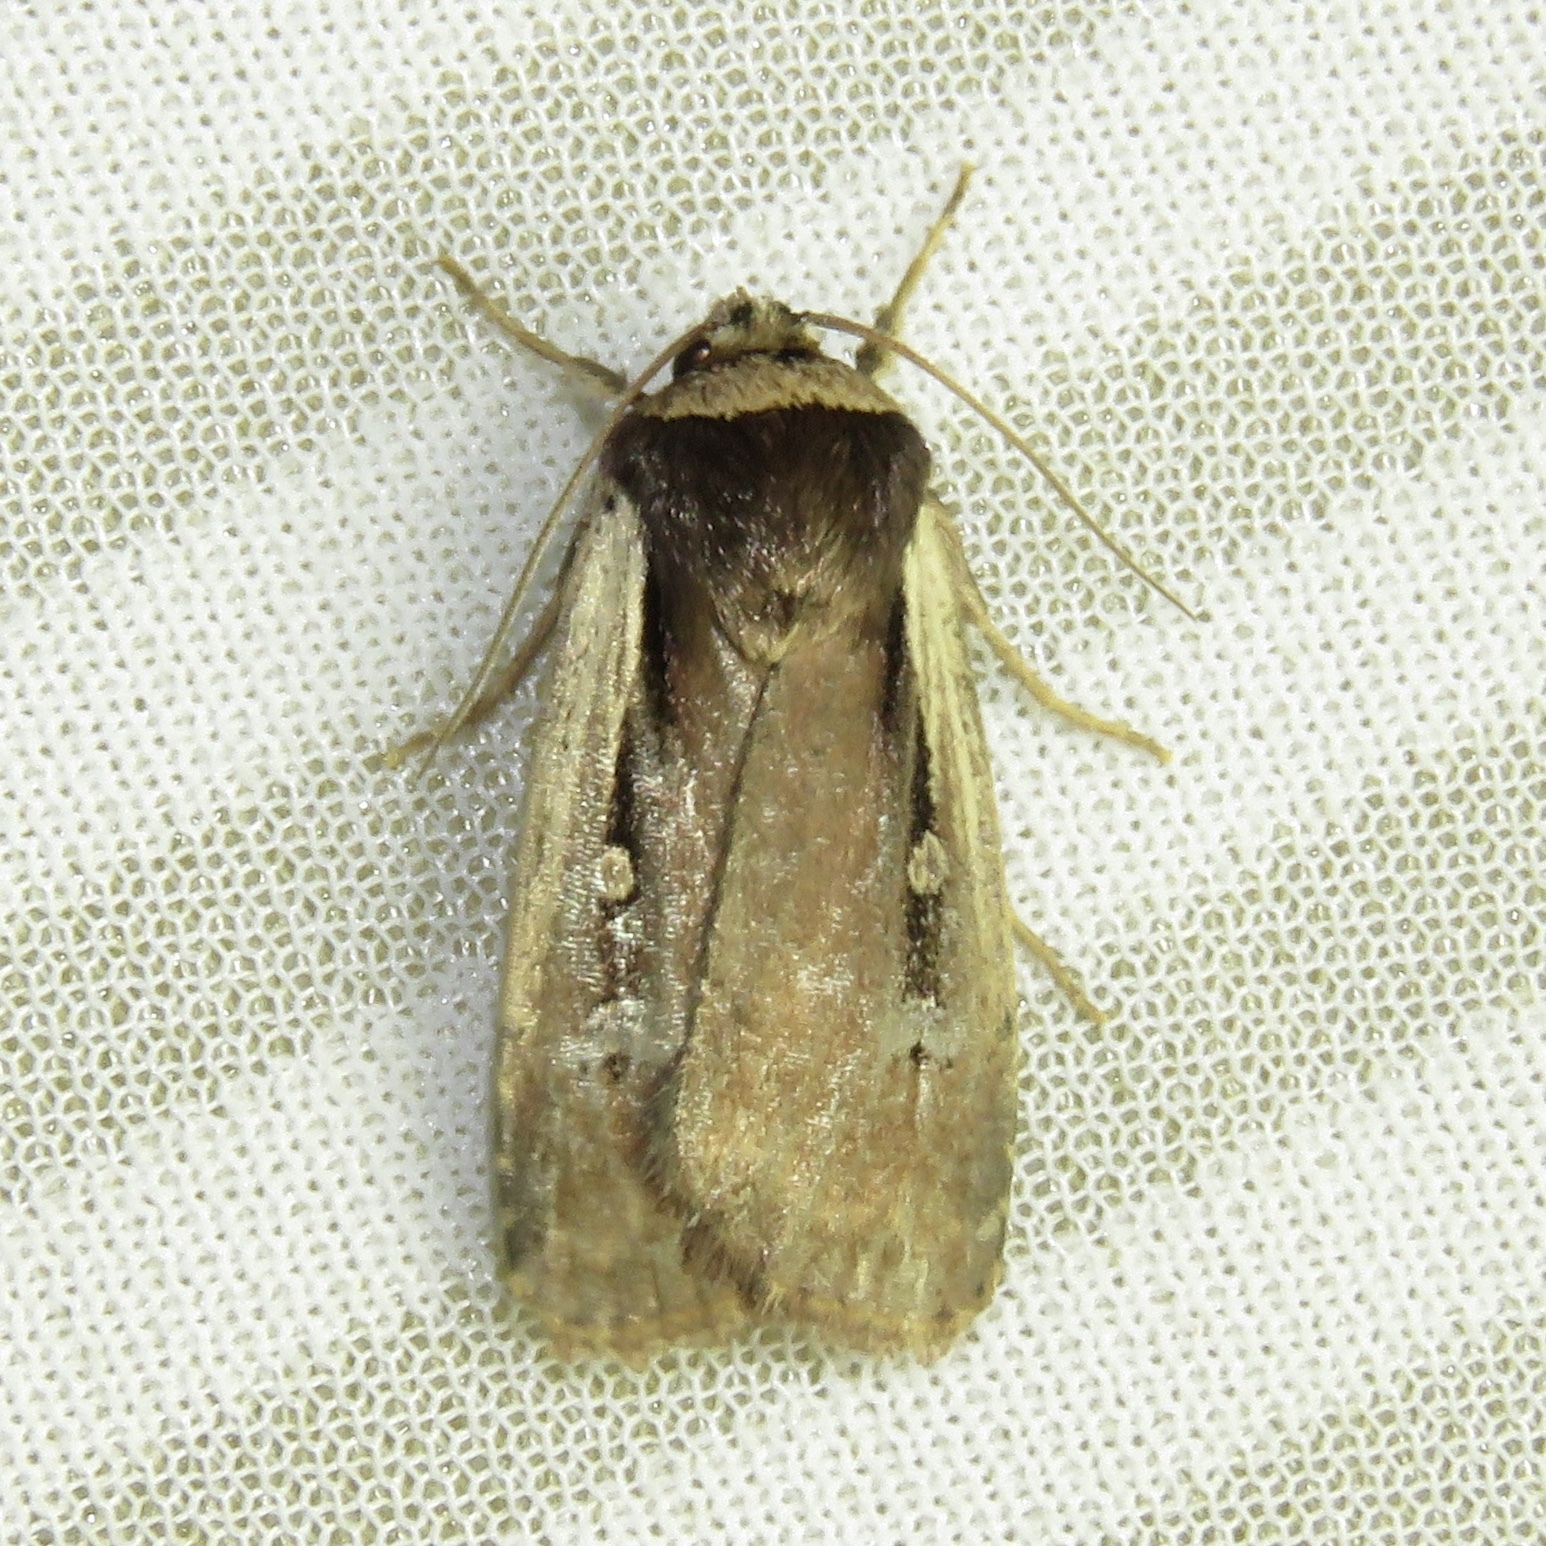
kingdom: Animalia
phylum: Arthropoda
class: Insecta
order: Lepidoptera
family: Noctuidae
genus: Ochropleura
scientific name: Ochropleura implecta
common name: Flame-shouldered dart
